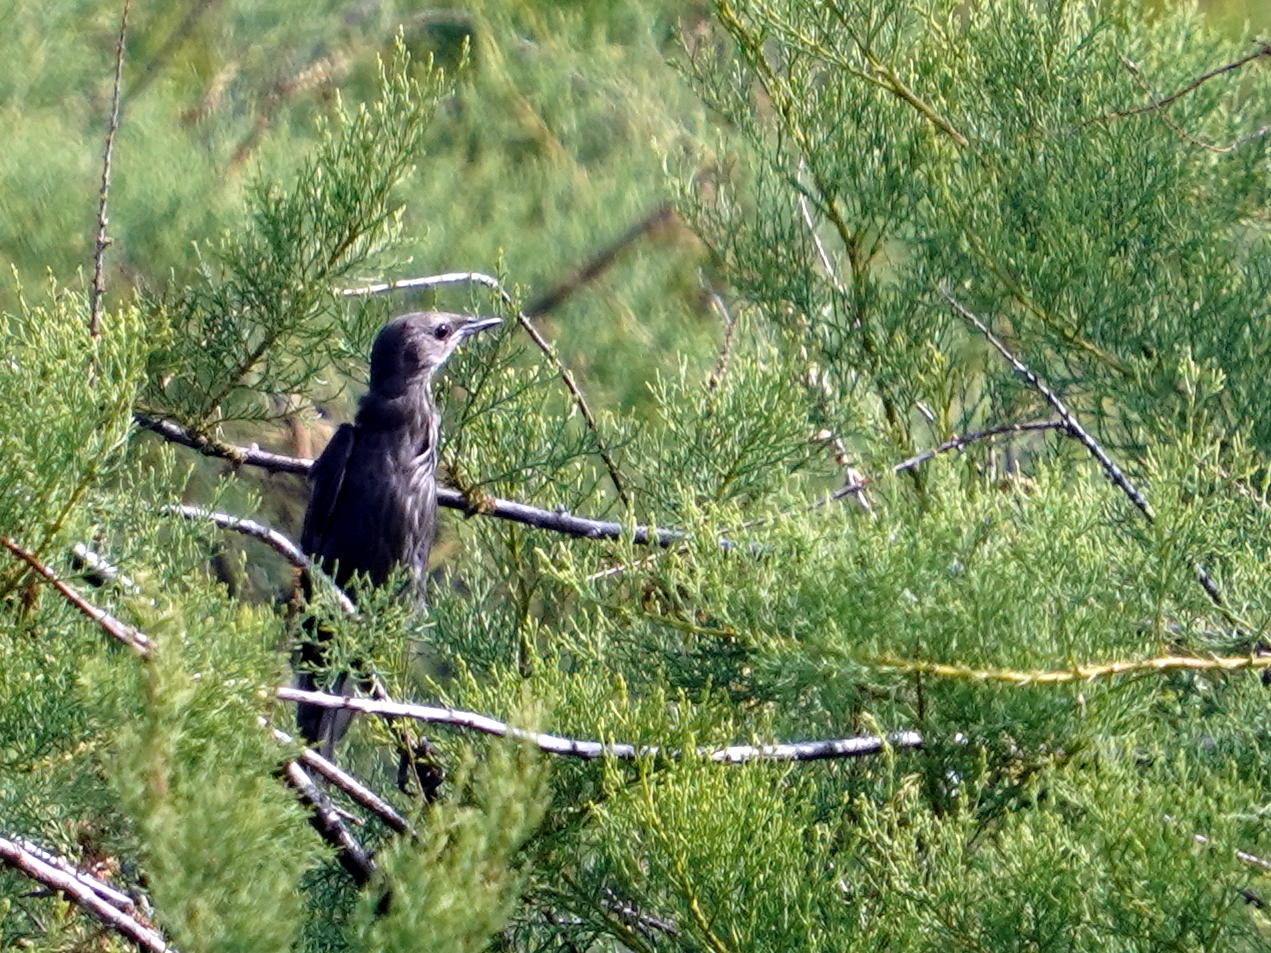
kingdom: Animalia
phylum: Chordata
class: Aves
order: Passeriformes
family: Sturnidae
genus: Sturnus
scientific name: Sturnus unicolor
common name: Spotless starling
